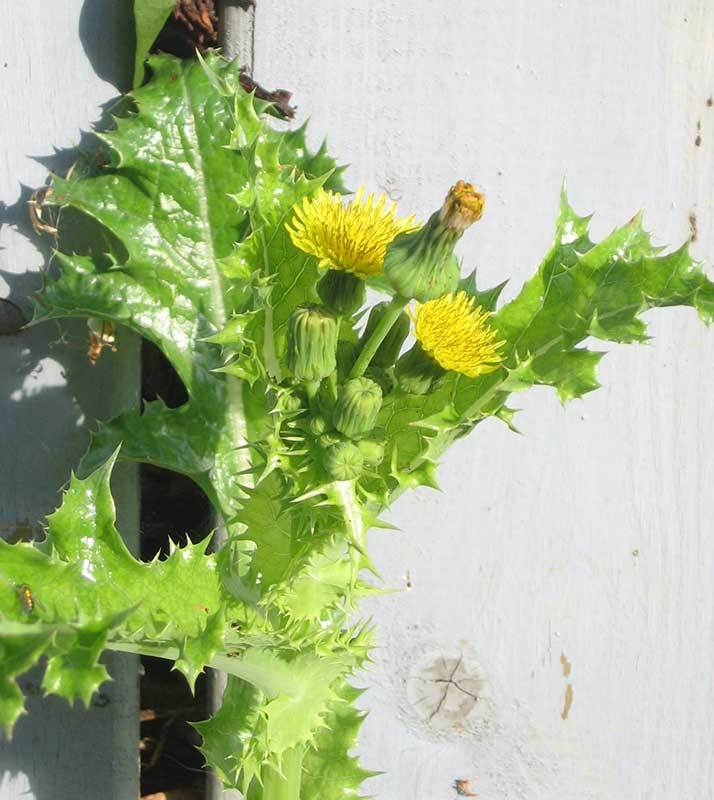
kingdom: Plantae
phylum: Tracheophyta
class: Magnoliopsida
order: Asterales
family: Asteraceae
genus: Sonchus
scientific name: Sonchus asper
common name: Prickly sow-thistle
